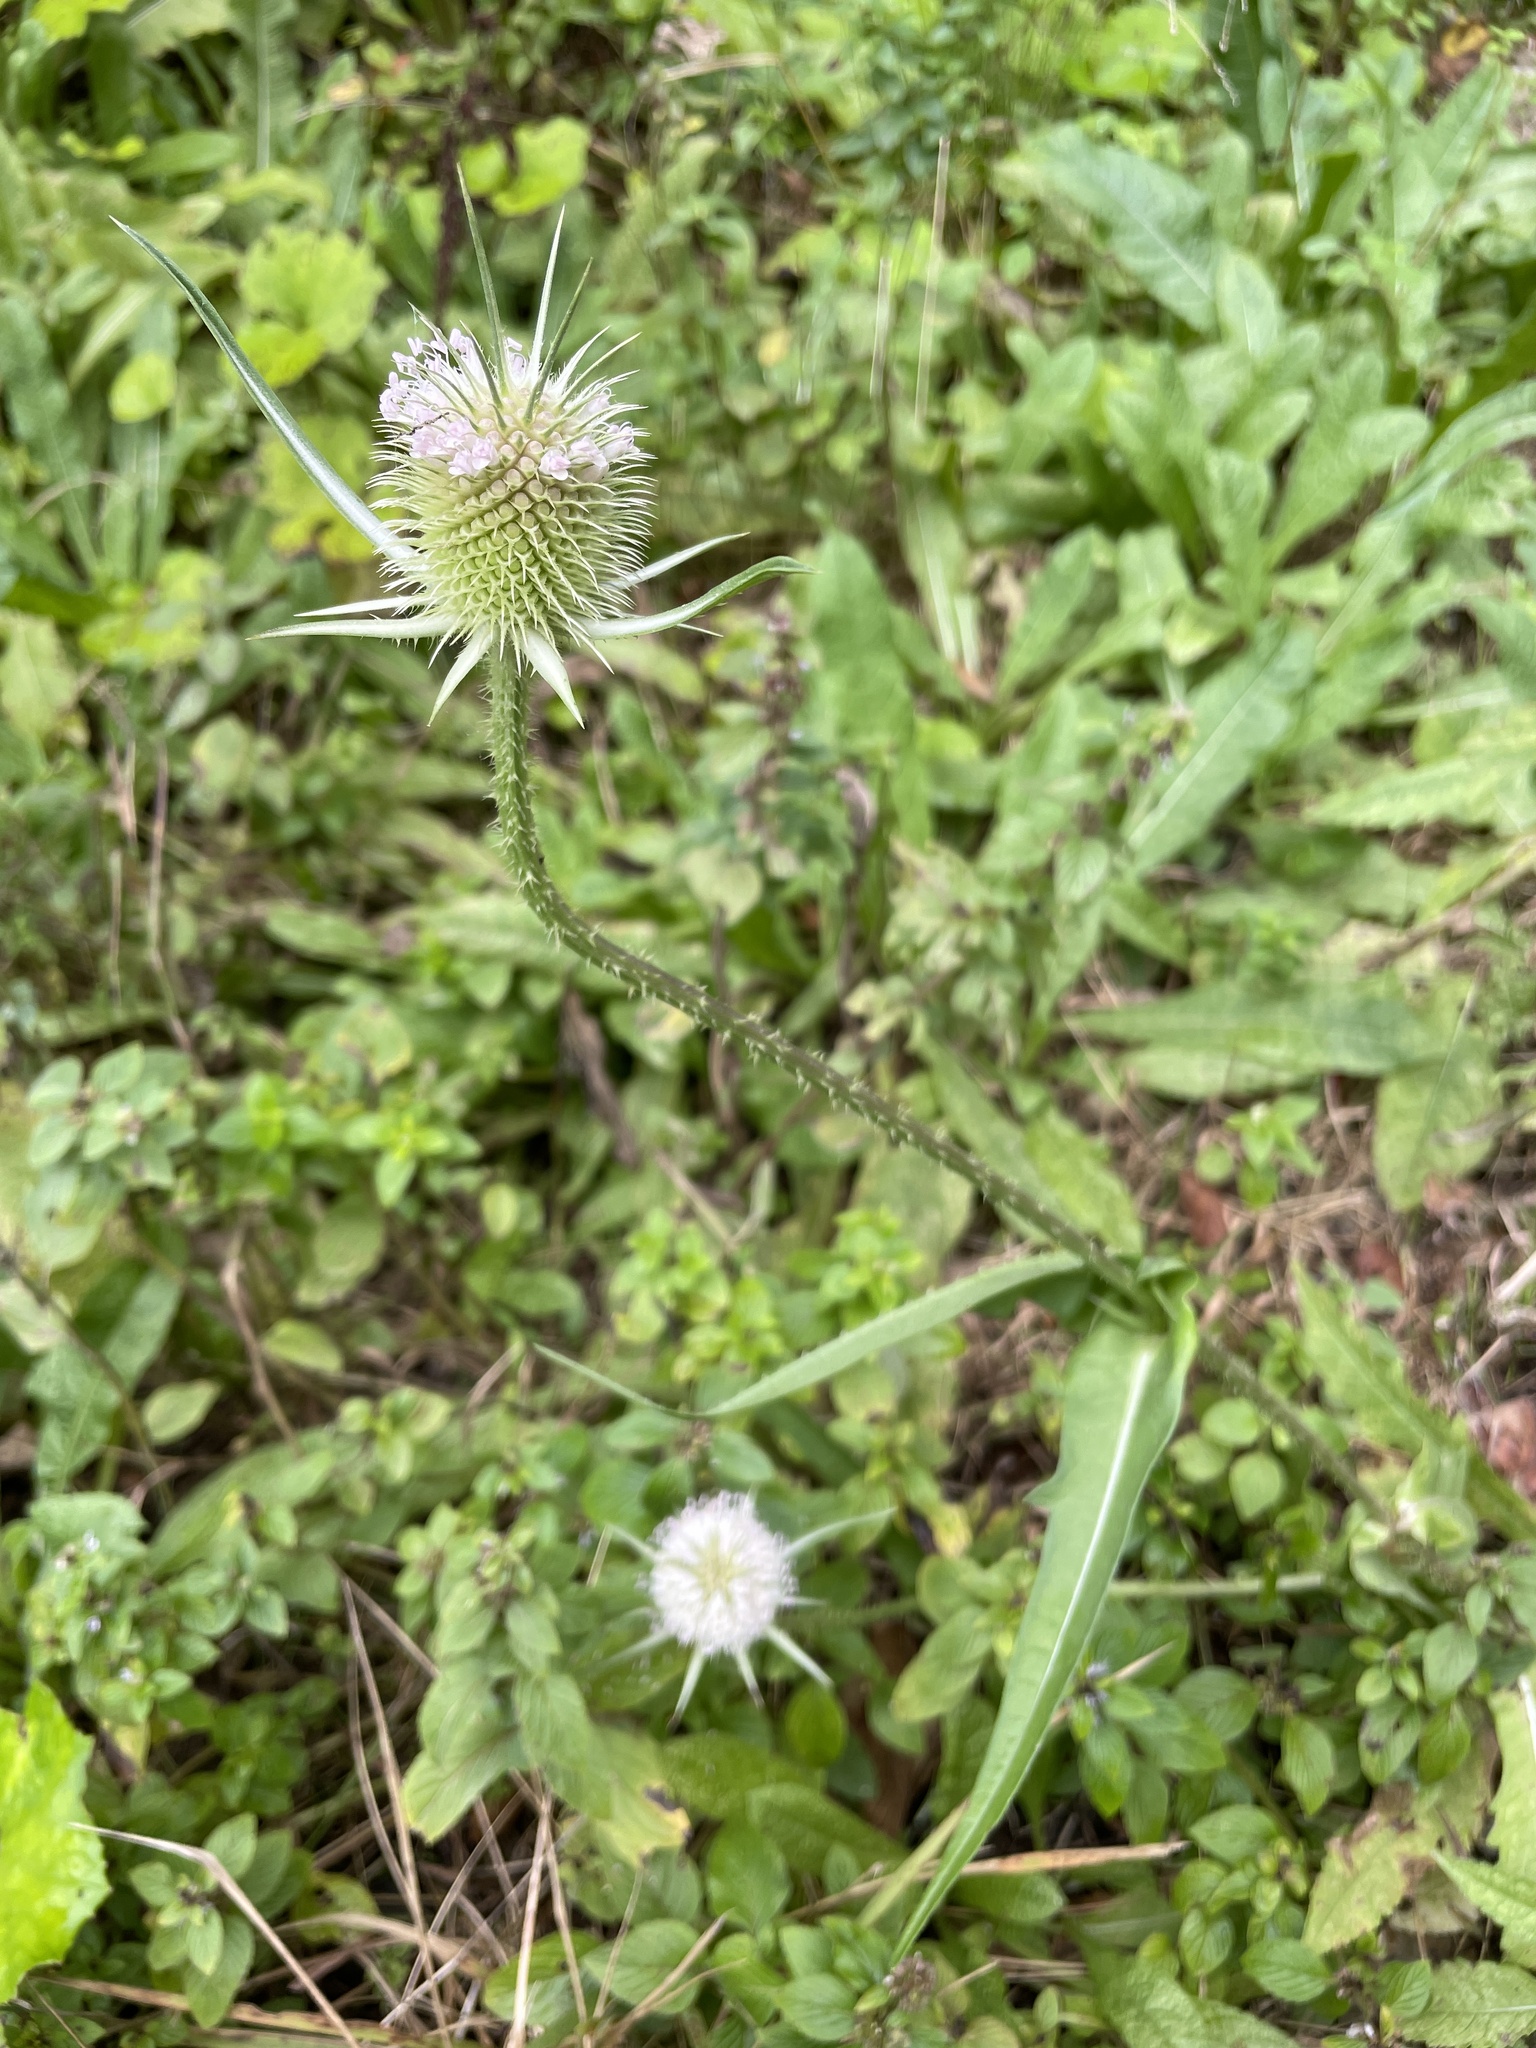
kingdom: Plantae
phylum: Tracheophyta
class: Magnoliopsida
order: Dipsacales
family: Caprifoliaceae
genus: Dipsacus
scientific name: Dipsacus laciniatus
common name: Cut-leaved teasel
